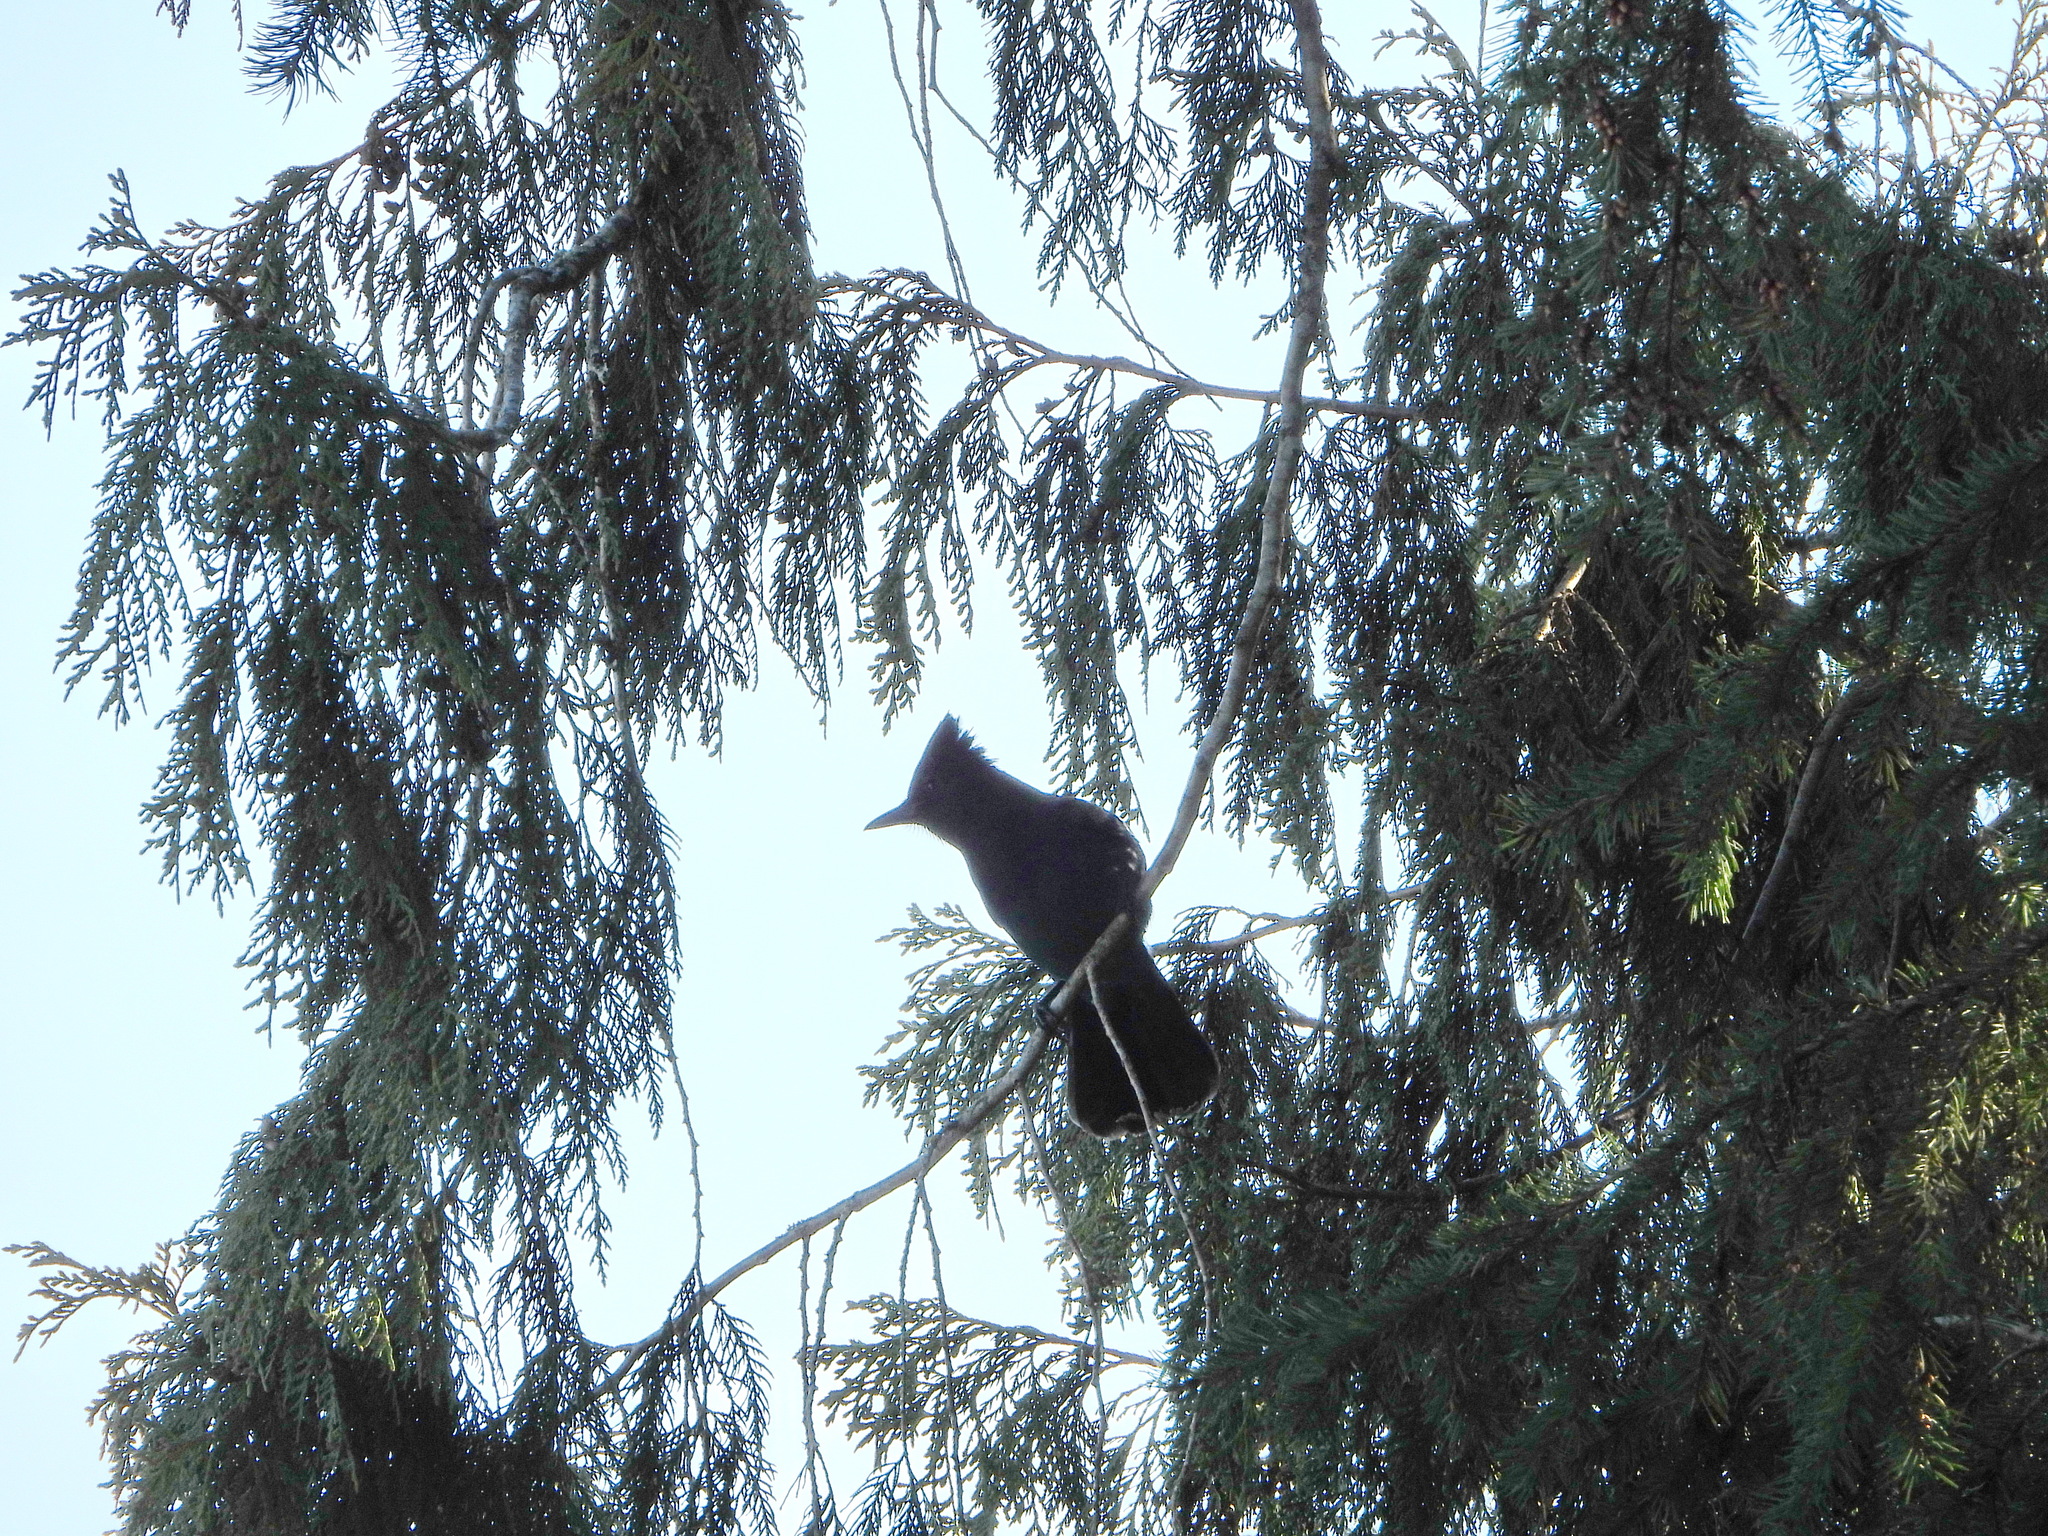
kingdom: Animalia
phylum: Chordata
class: Aves
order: Passeriformes
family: Corvidae
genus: Cyanocitta
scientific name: Cyanocitta stelleri
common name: Steller's jay
